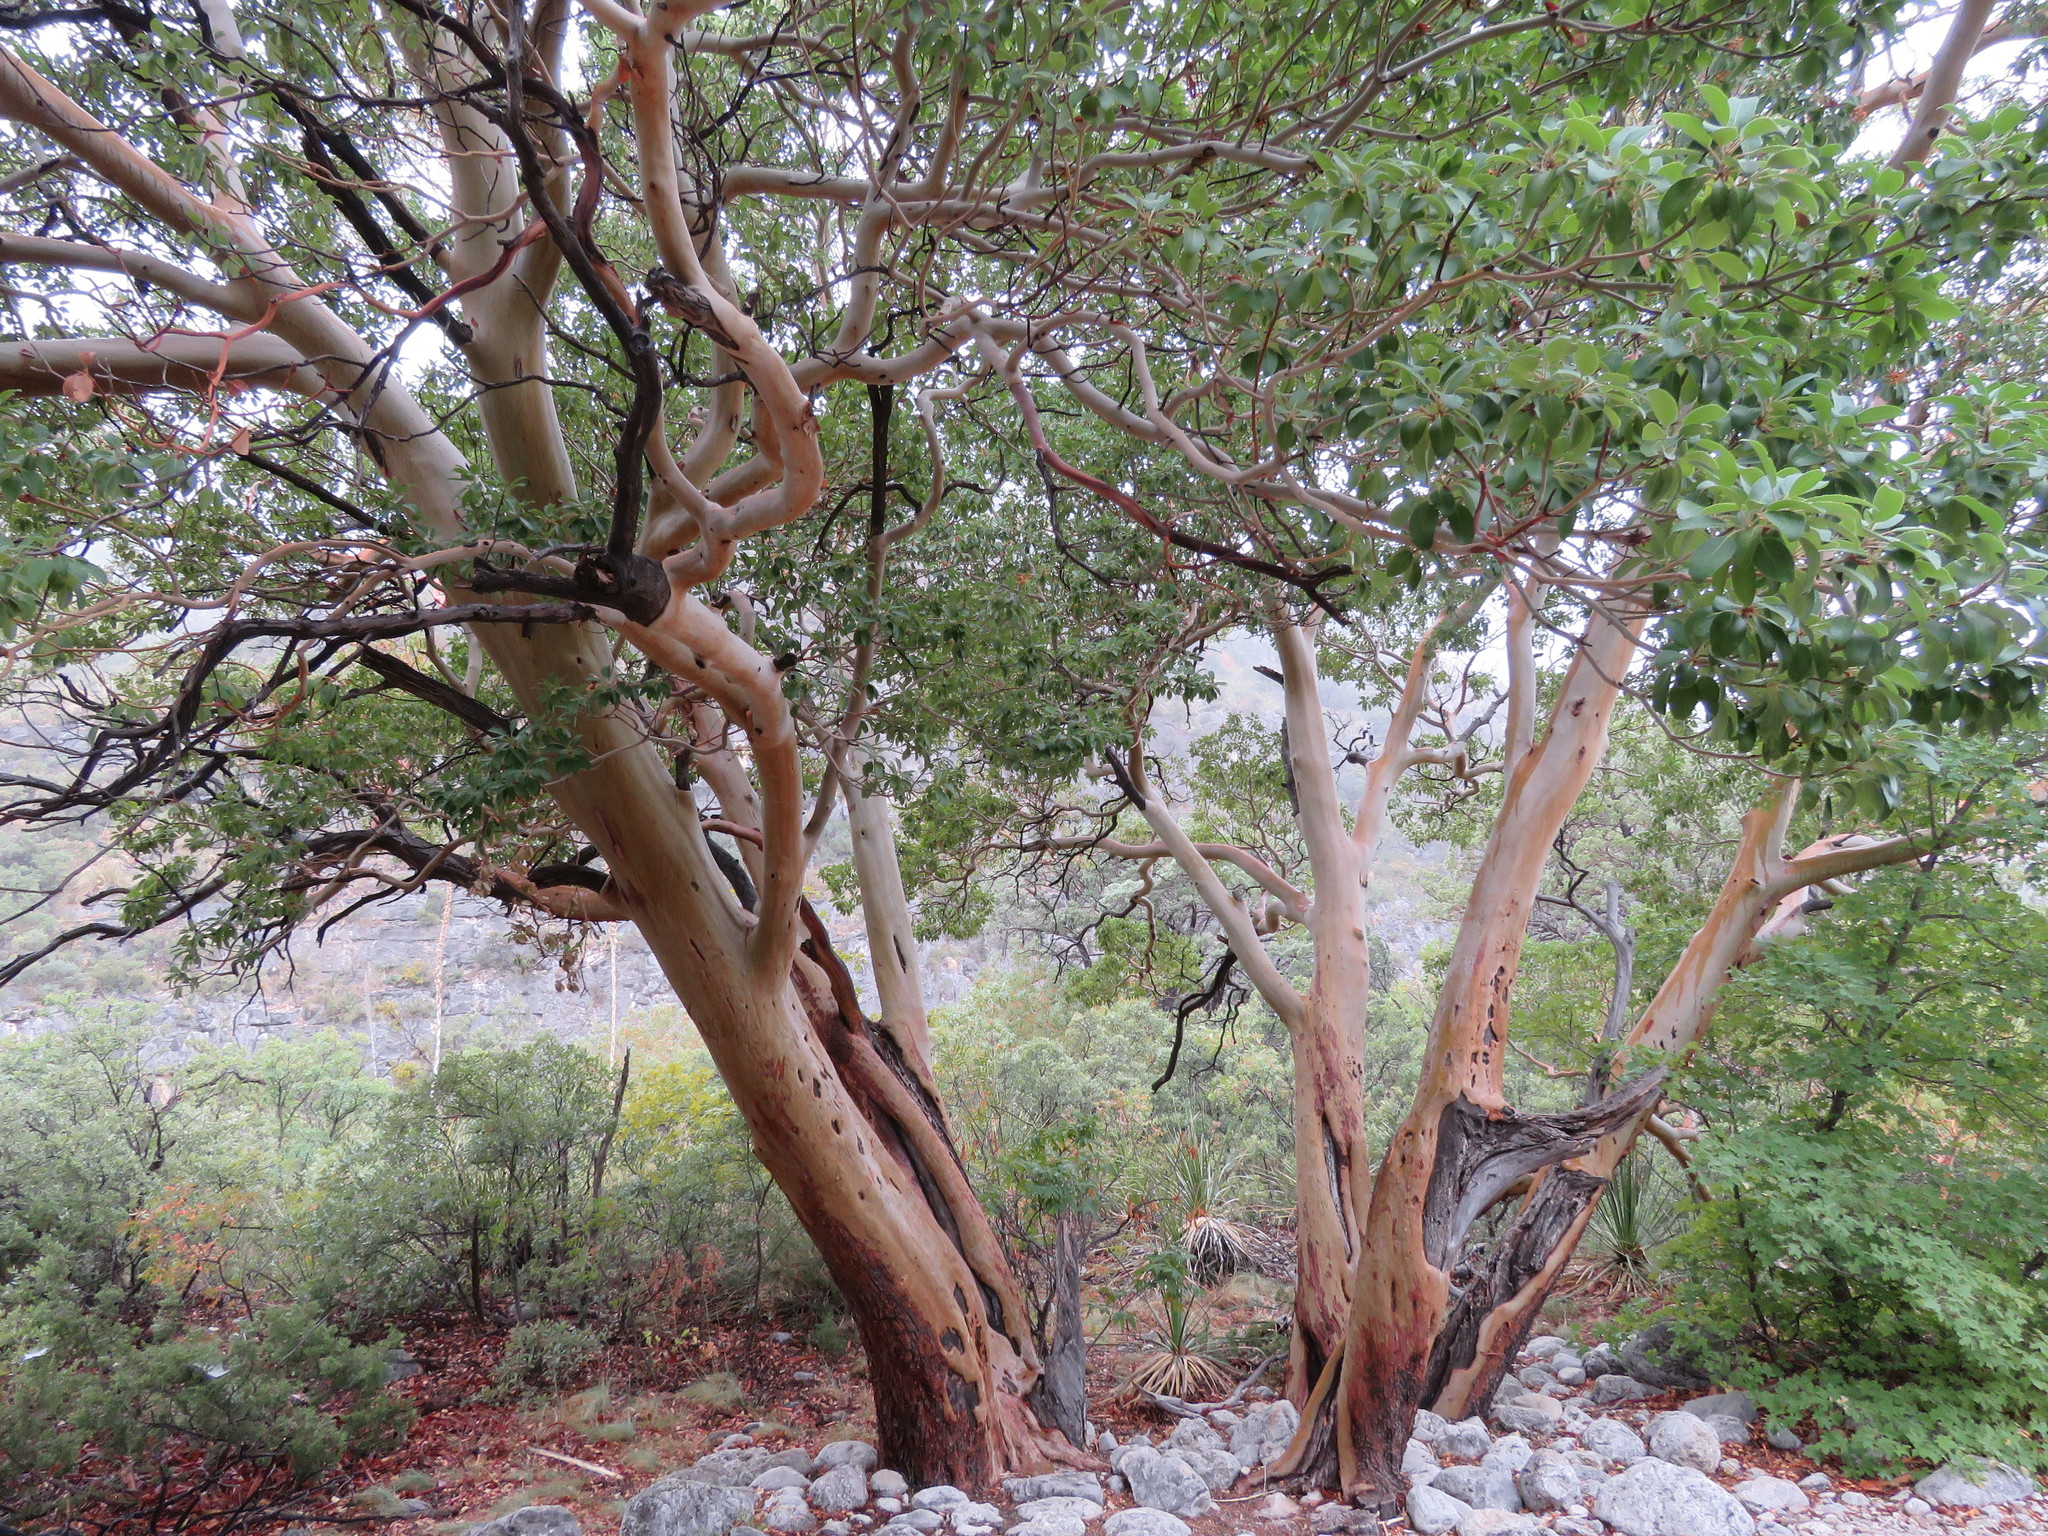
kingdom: Plantae
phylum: Tracheophyta
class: Magnoliopsida
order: Ericales
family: Ericaceae
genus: Arbutus
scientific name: Arbutus xalapensis
